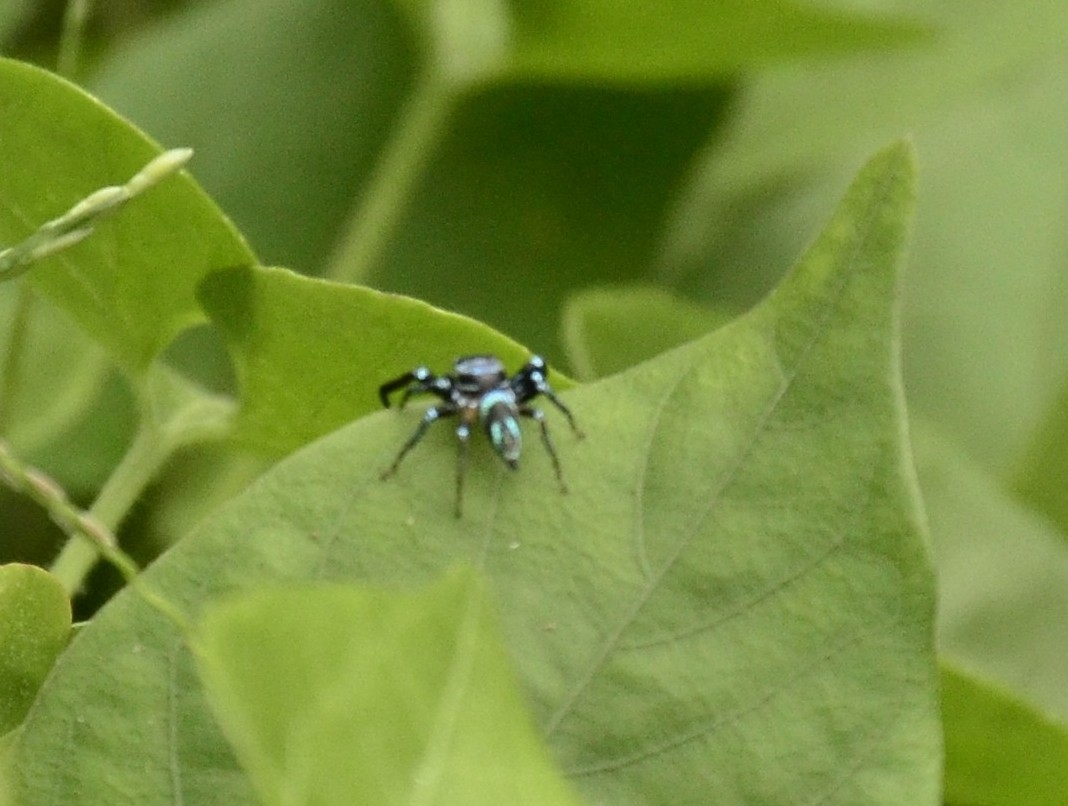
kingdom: Animalia
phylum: Arthropoda
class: Arachnida
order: Araneae
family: Salticidae
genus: Thiania
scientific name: Thiania bhamoensis
